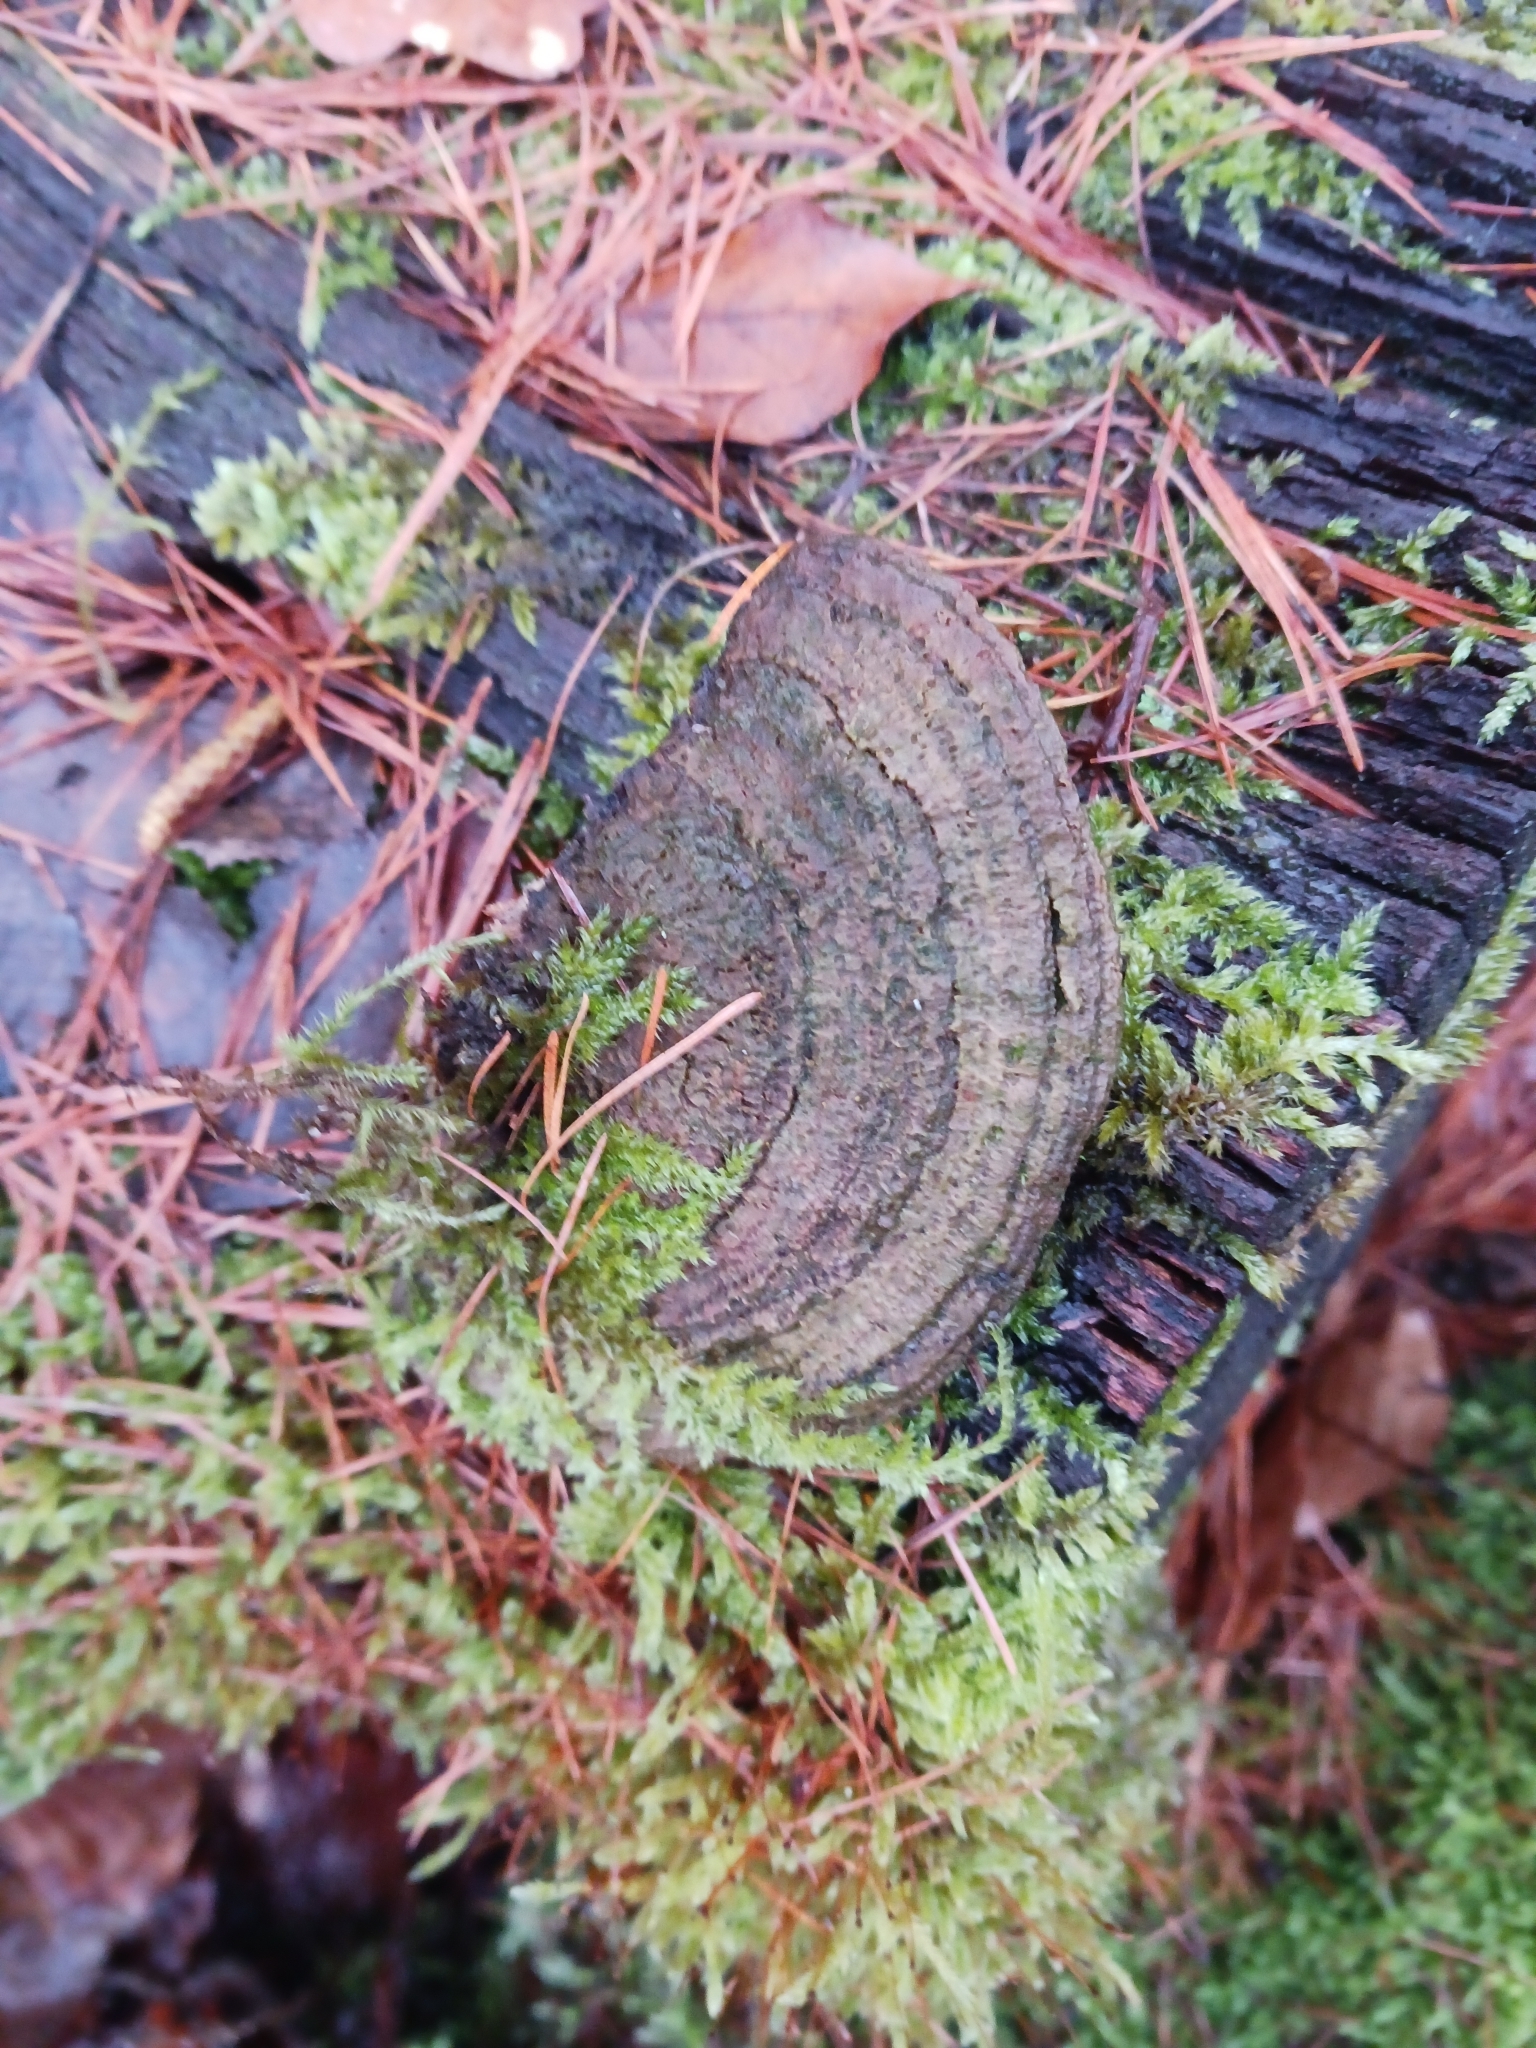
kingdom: Fungi
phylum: Basidiomycota
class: Agaricomycetes
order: Gloeophyllales
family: Gloeophyllaceae
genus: Gloeophyllum
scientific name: Gloeophyllum sepiarium
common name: Conifer mazegill
